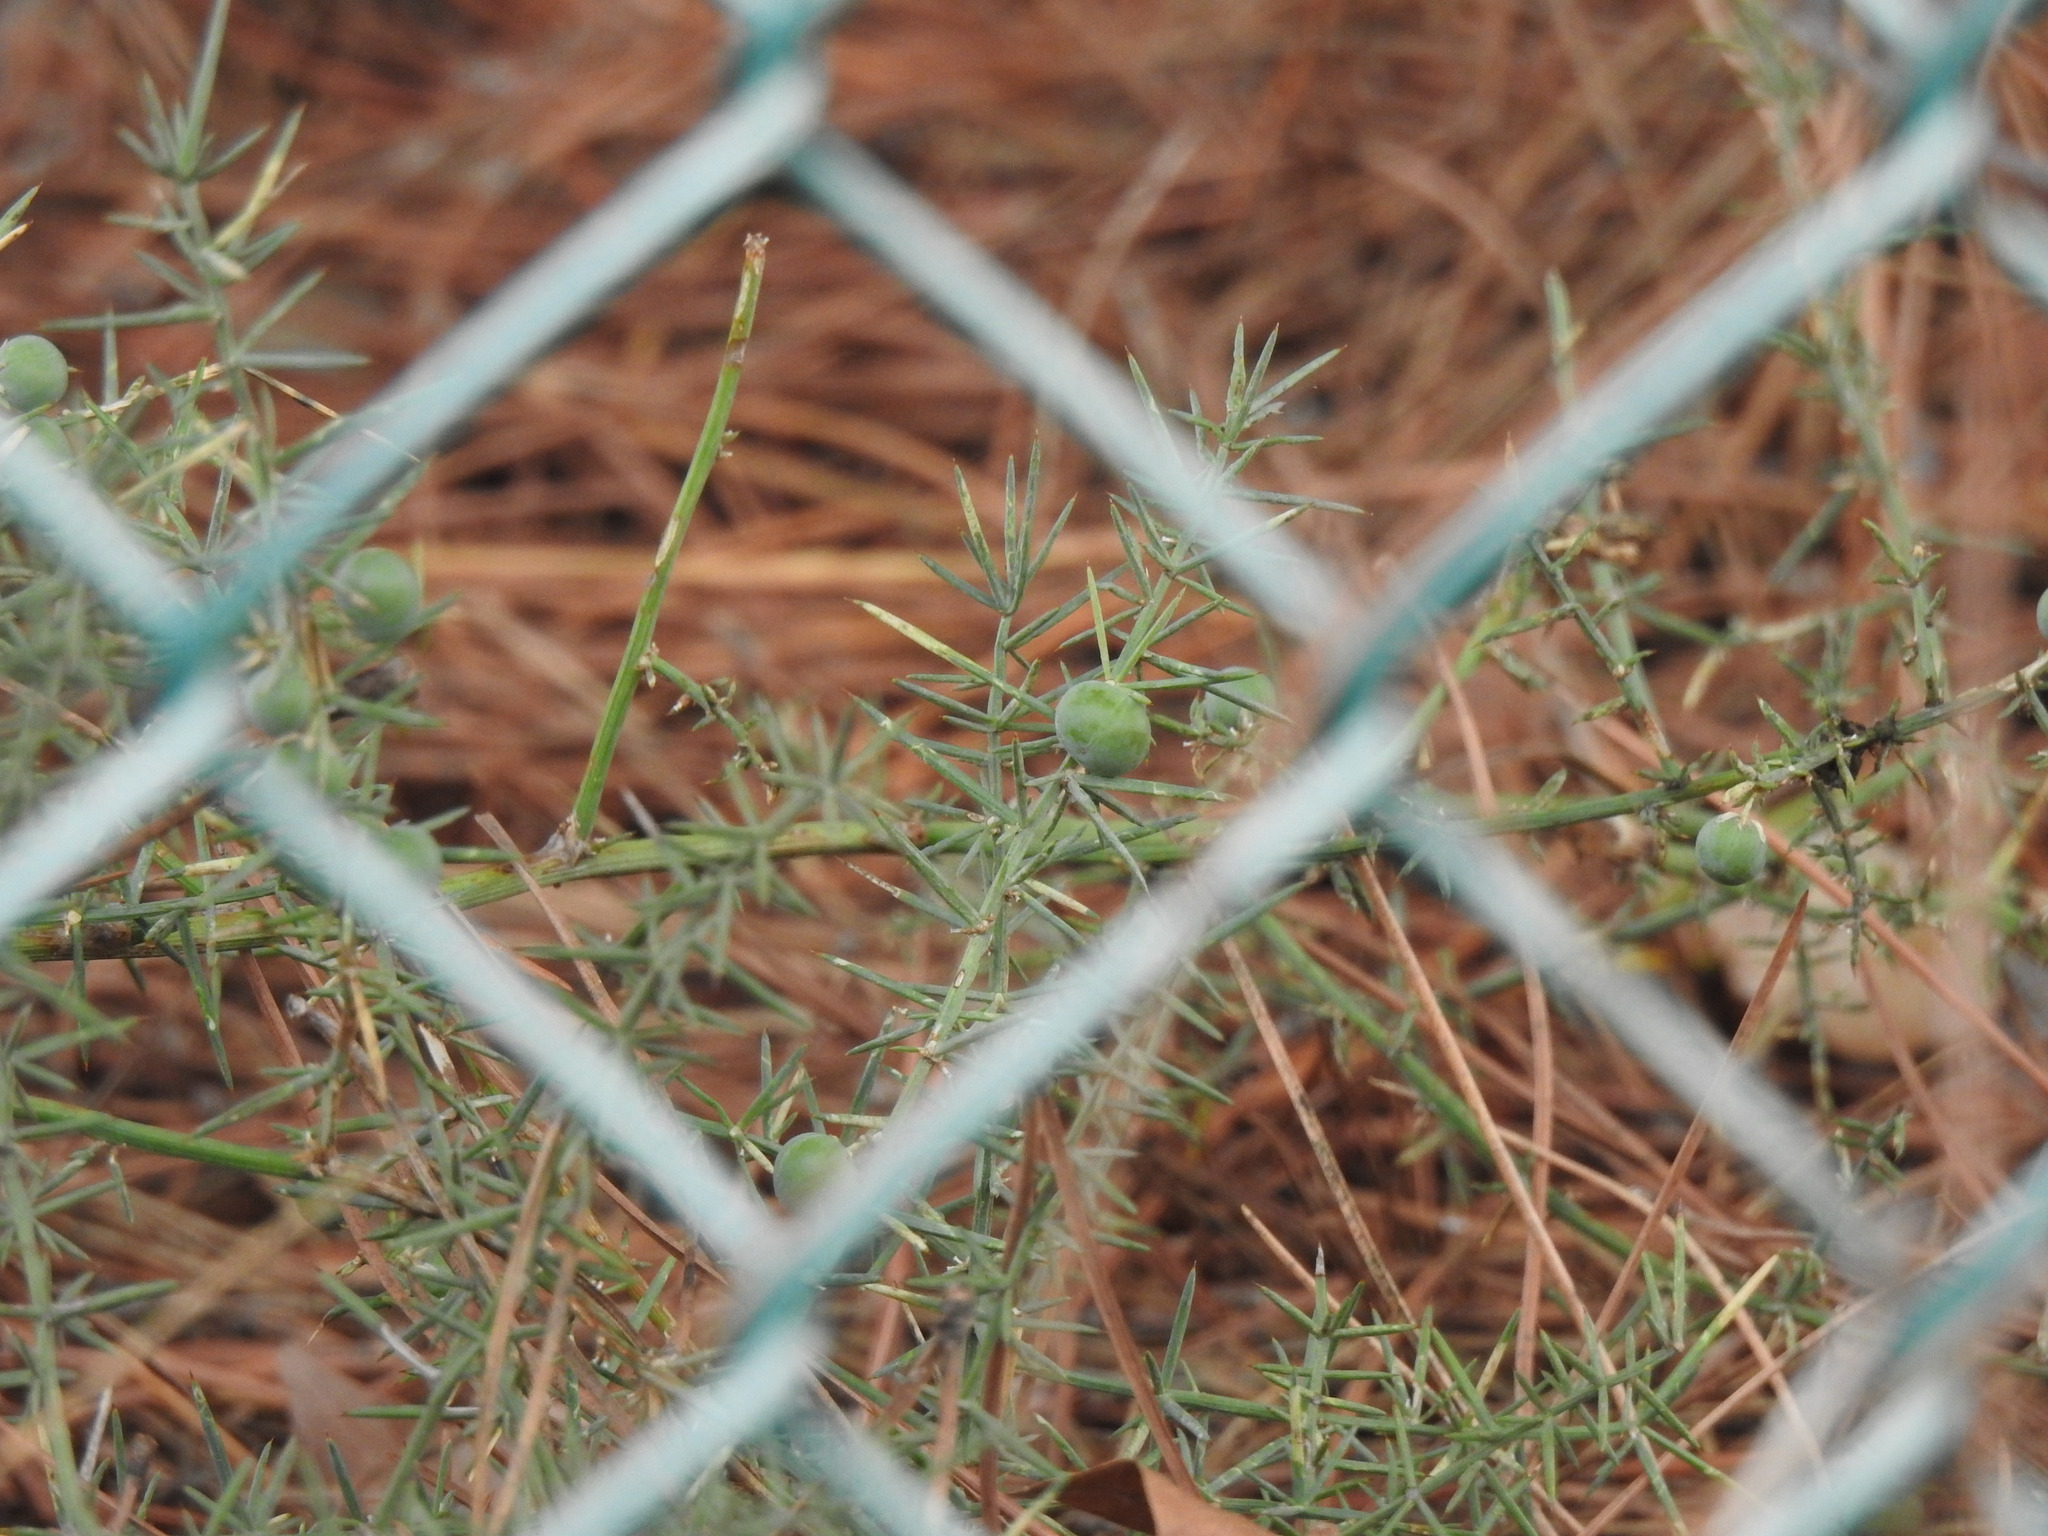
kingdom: Plantae
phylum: Tracheophyta
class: Liliopsida
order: Asparagales
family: Asparagaceae
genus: Asparagus
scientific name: Asparagus aphyllus
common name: Mediterranean asparagus
